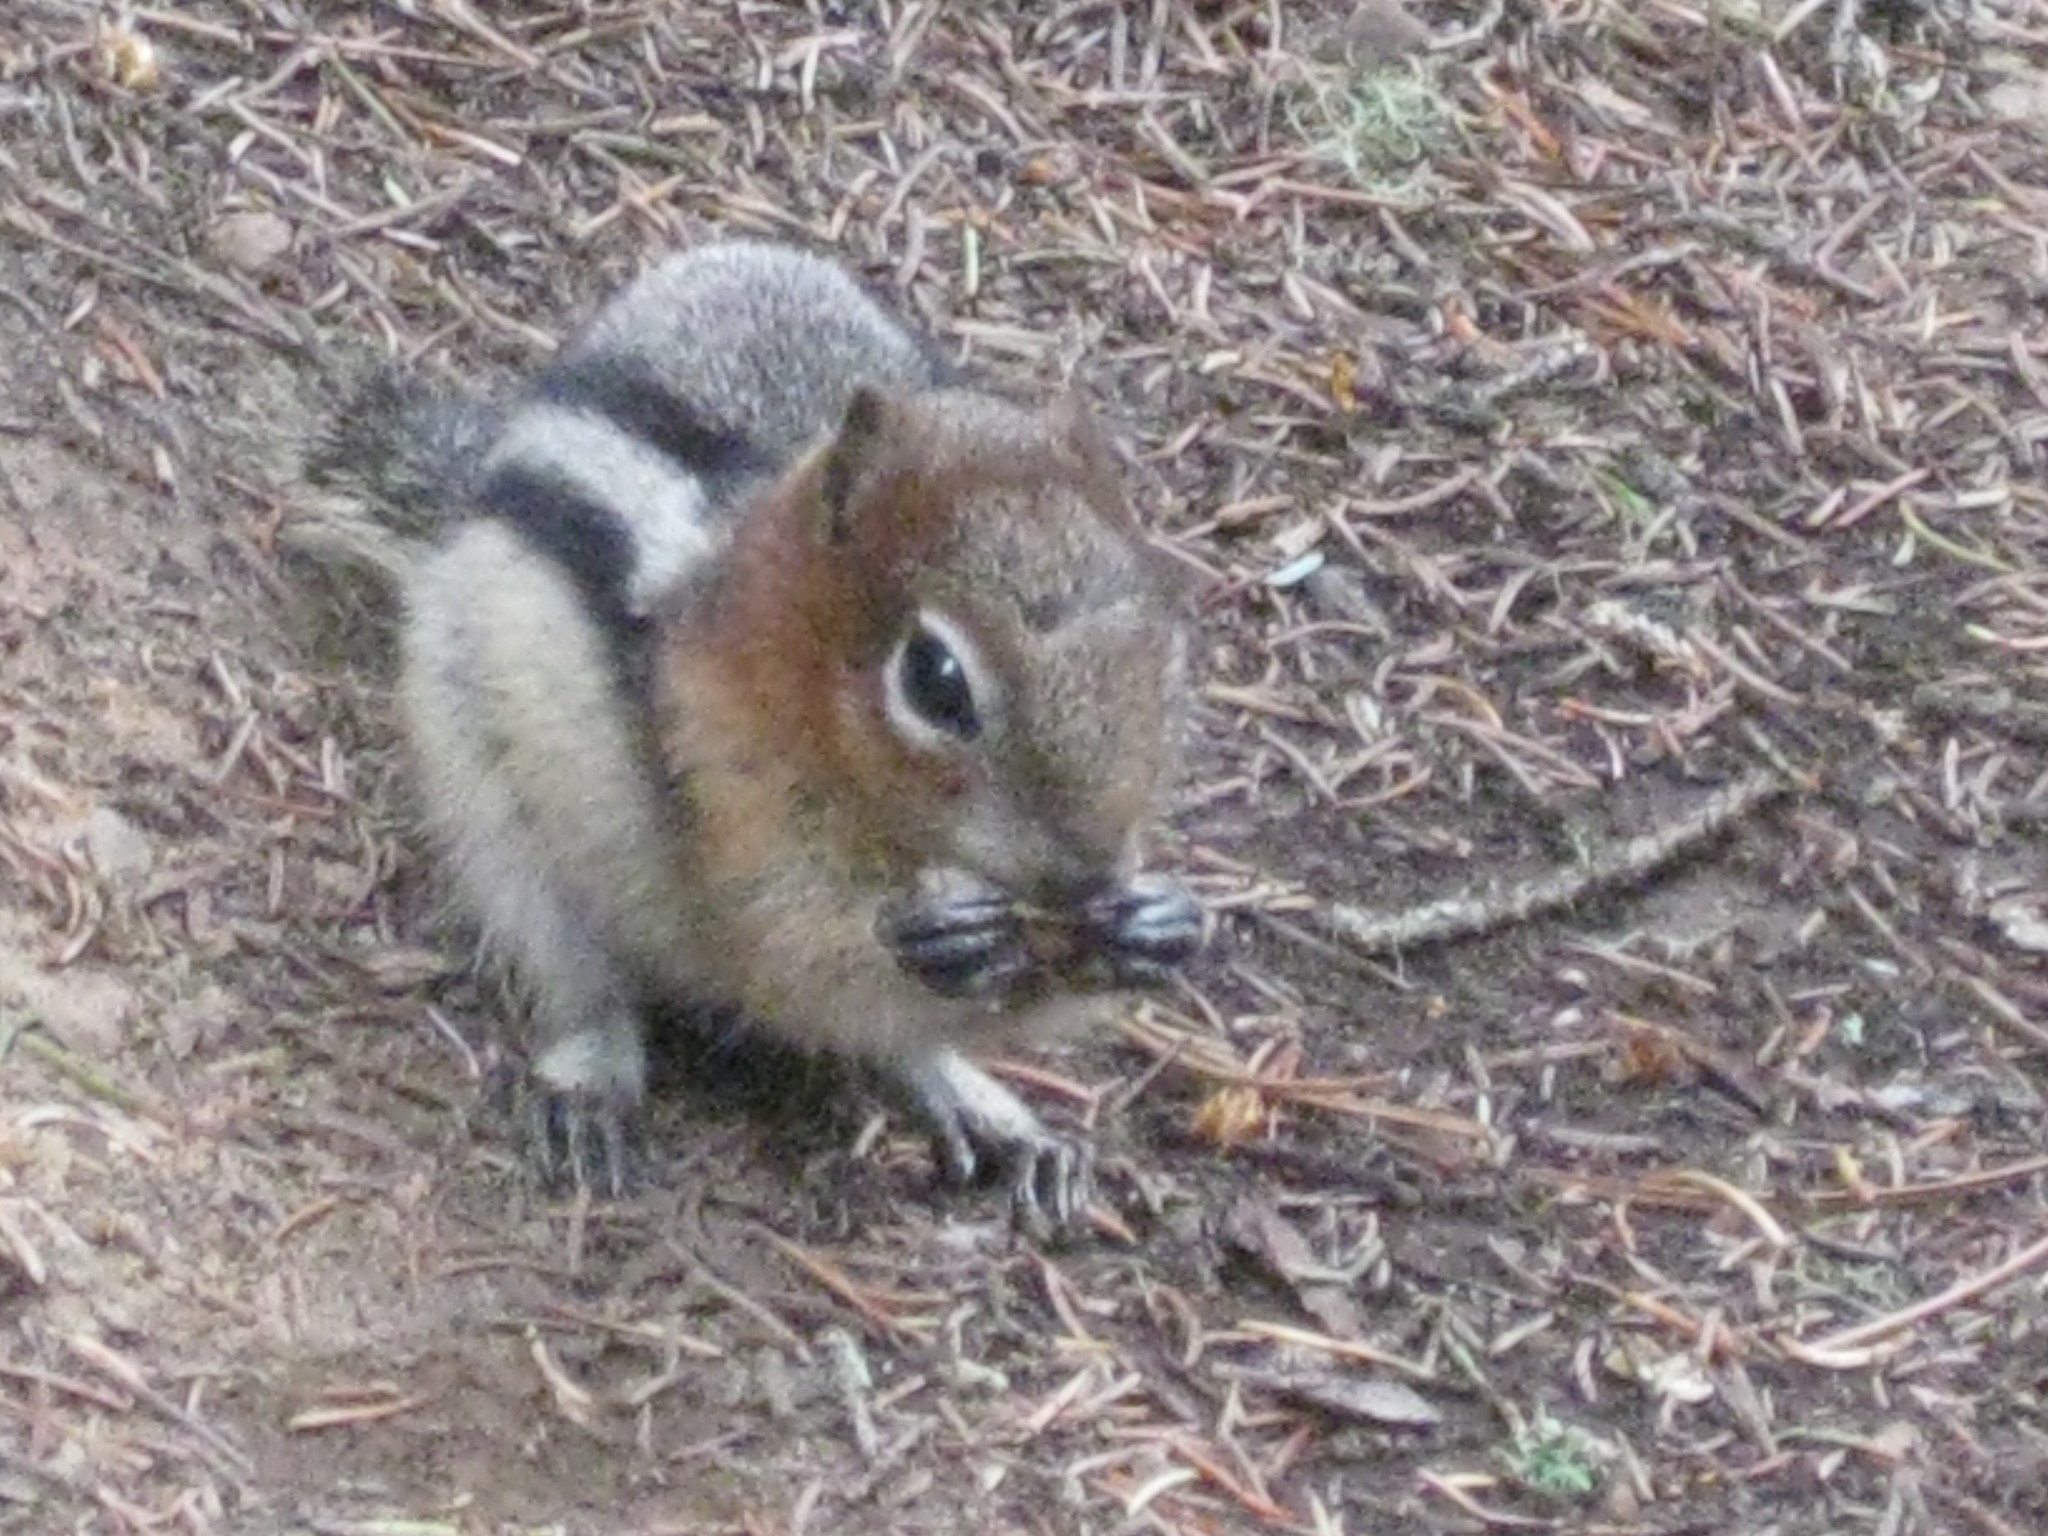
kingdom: Animalia
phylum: Chordata
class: Mammalia
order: Rodentia
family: Sciuridae
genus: Callospermophilus
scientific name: Callospermophilus lateralis
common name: Golden-mantled ground squirrel
